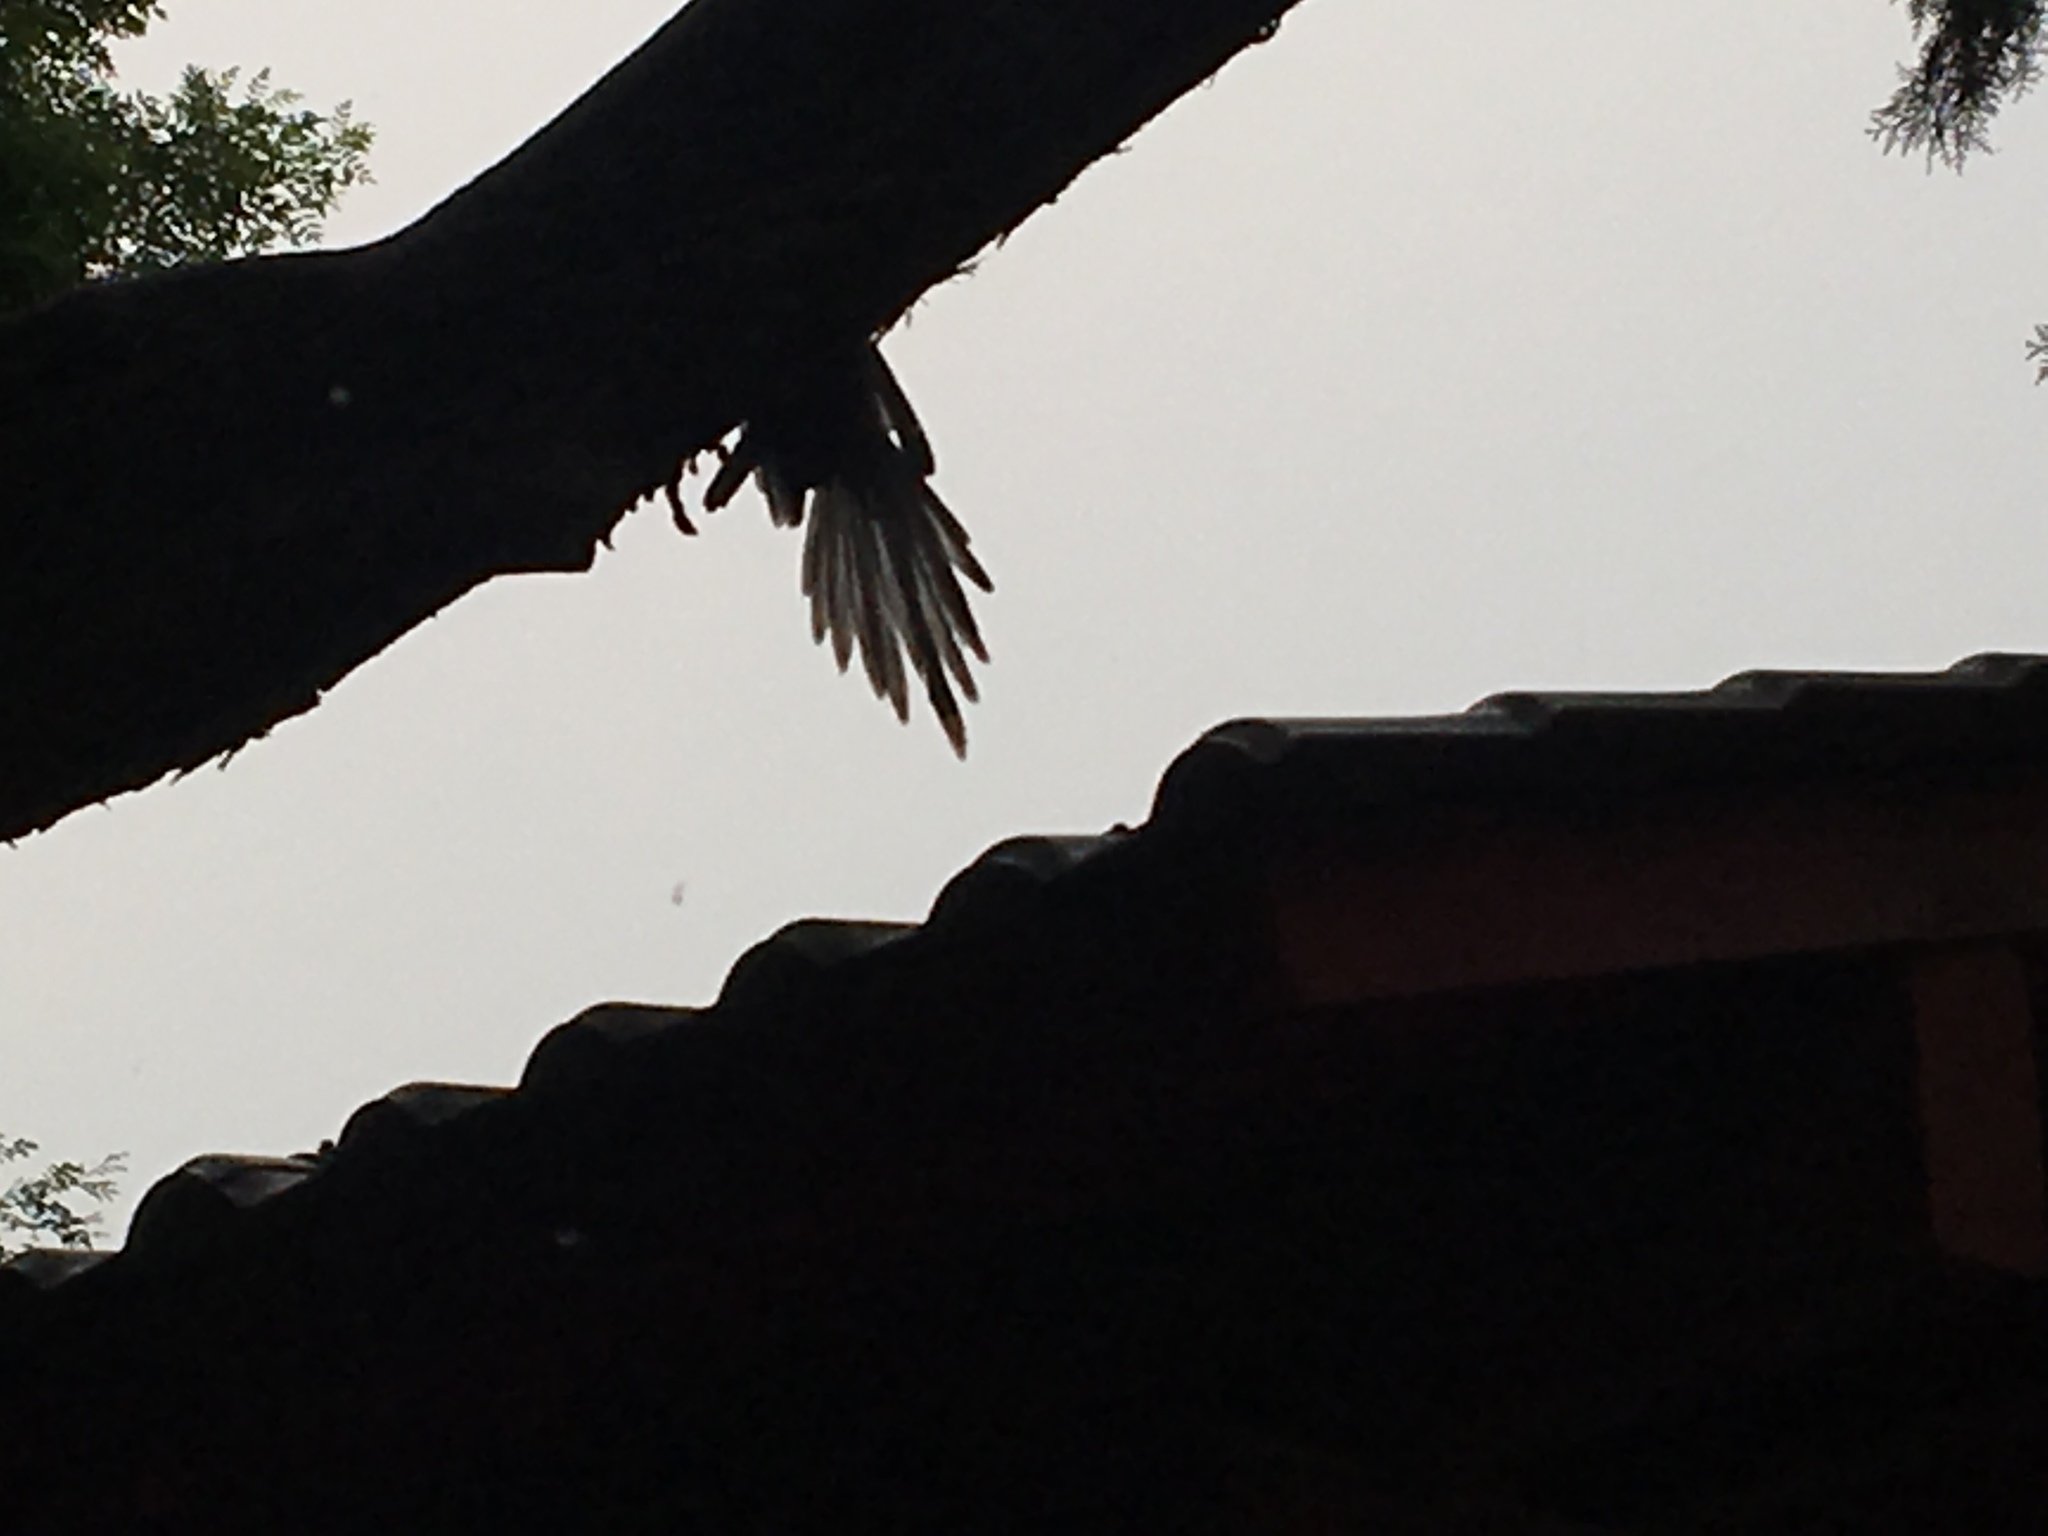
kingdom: Animalia
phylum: Chordata
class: Aves
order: Passeriformes
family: Corvidae
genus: Cyanopica
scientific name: Cyanopica cyanus
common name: Azure-winged magpie
